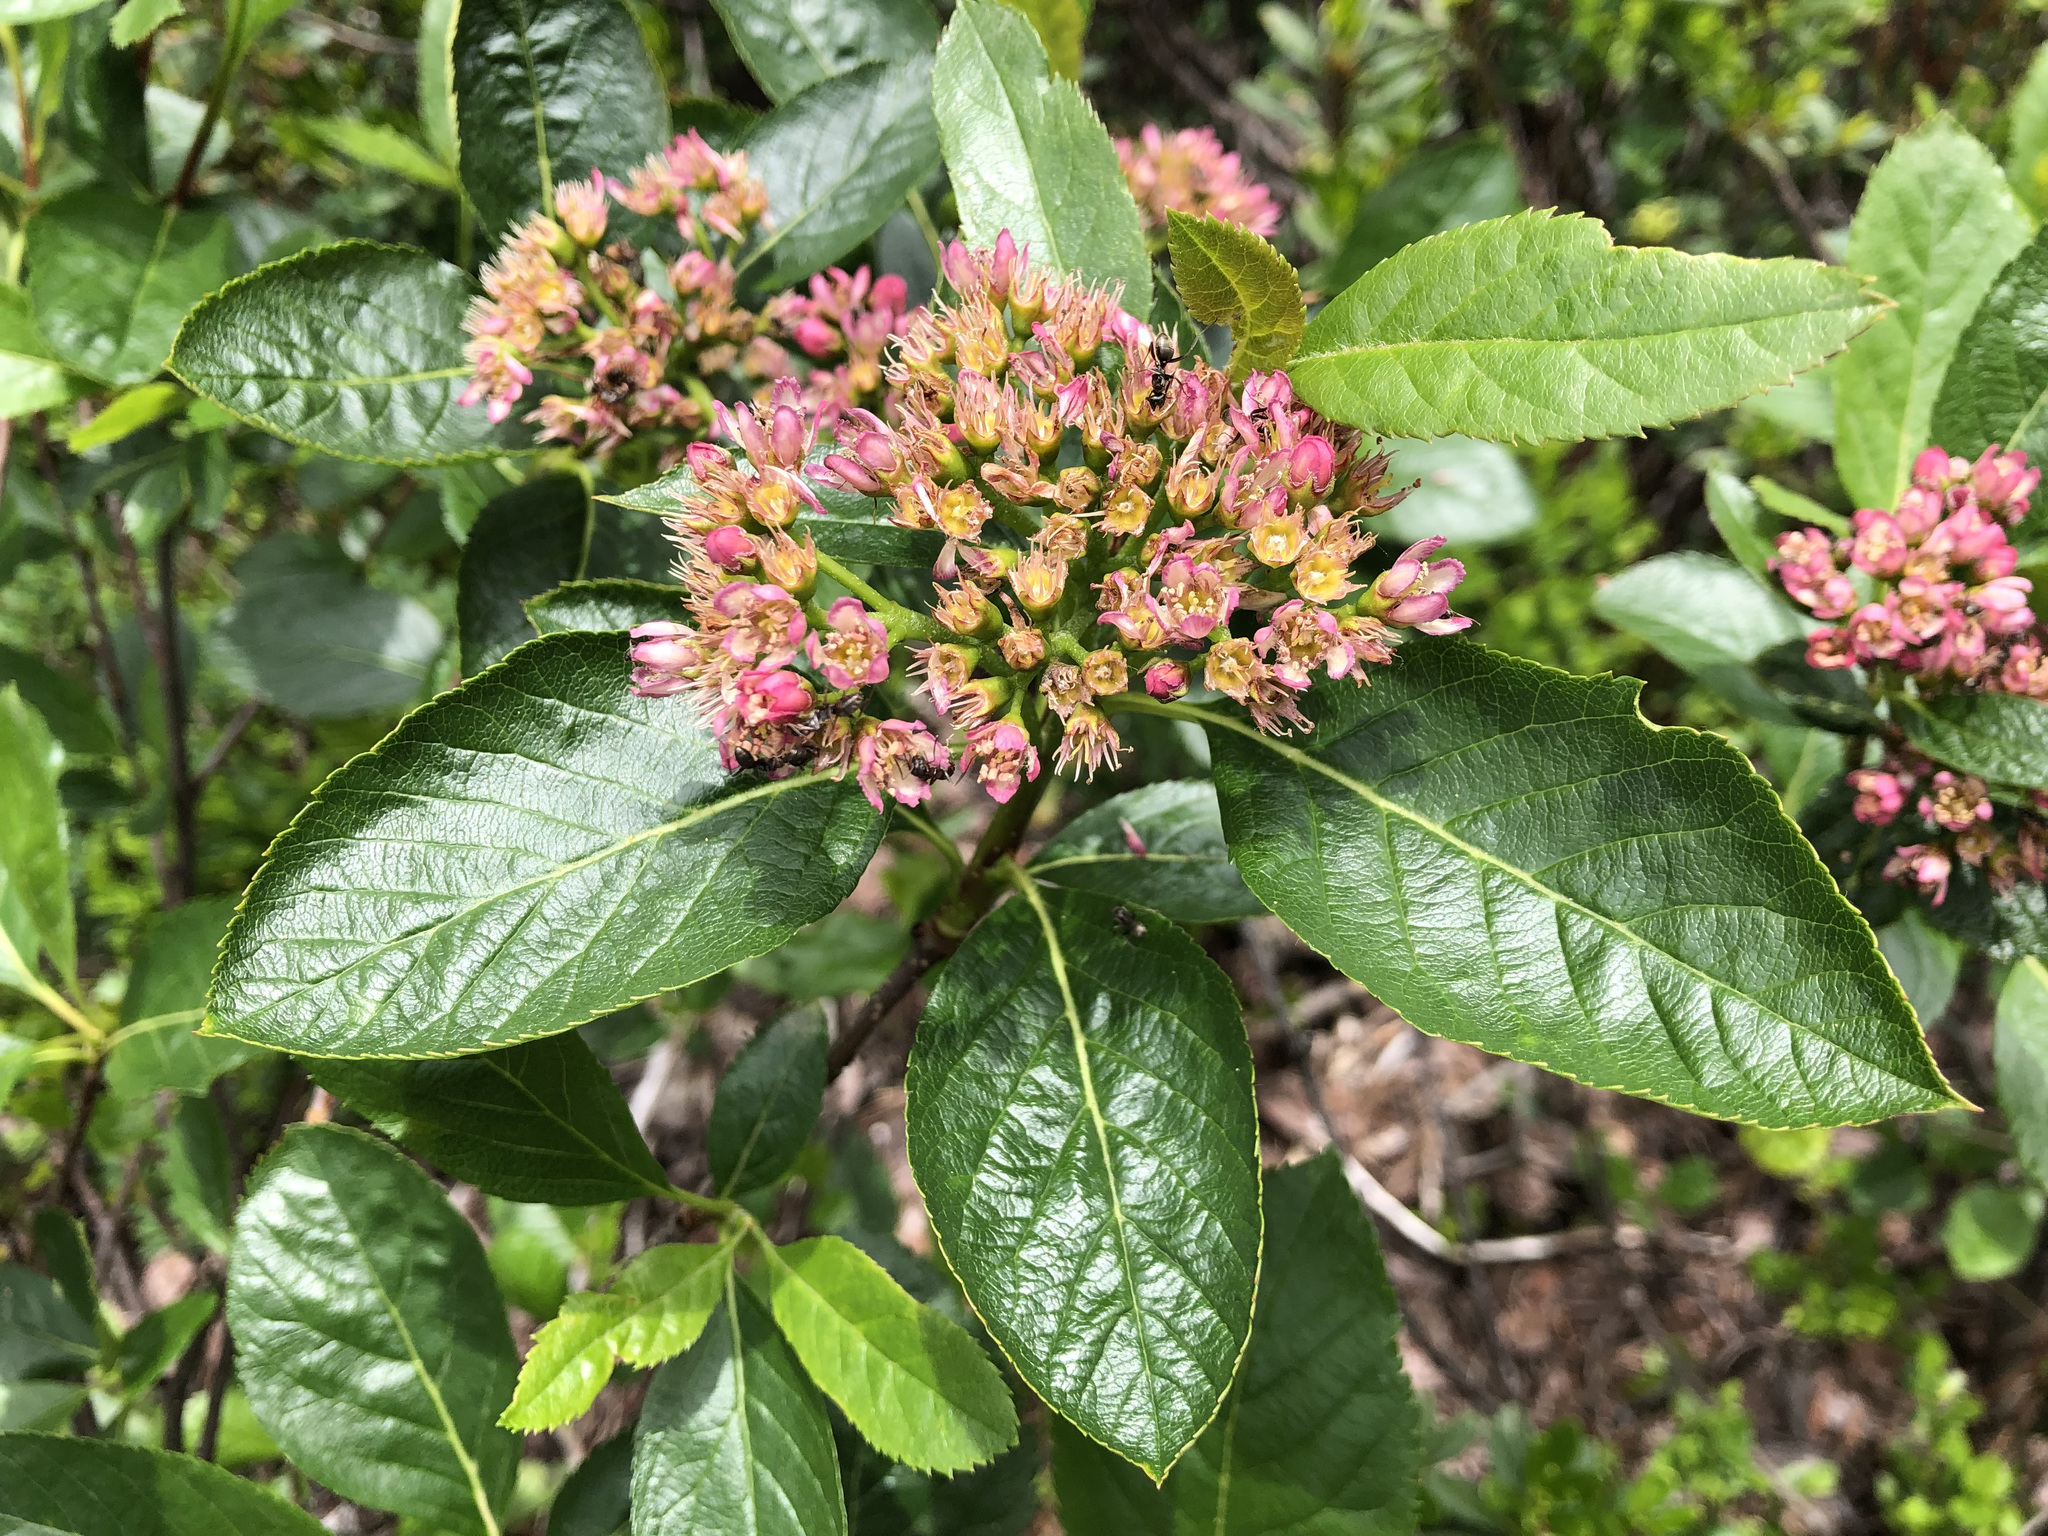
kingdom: Plantae
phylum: Tracheophyta
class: Magnoliopsida
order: Rosales
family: Rosaceae
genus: Chamaemespilus
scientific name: Chamaemespilus alpina
